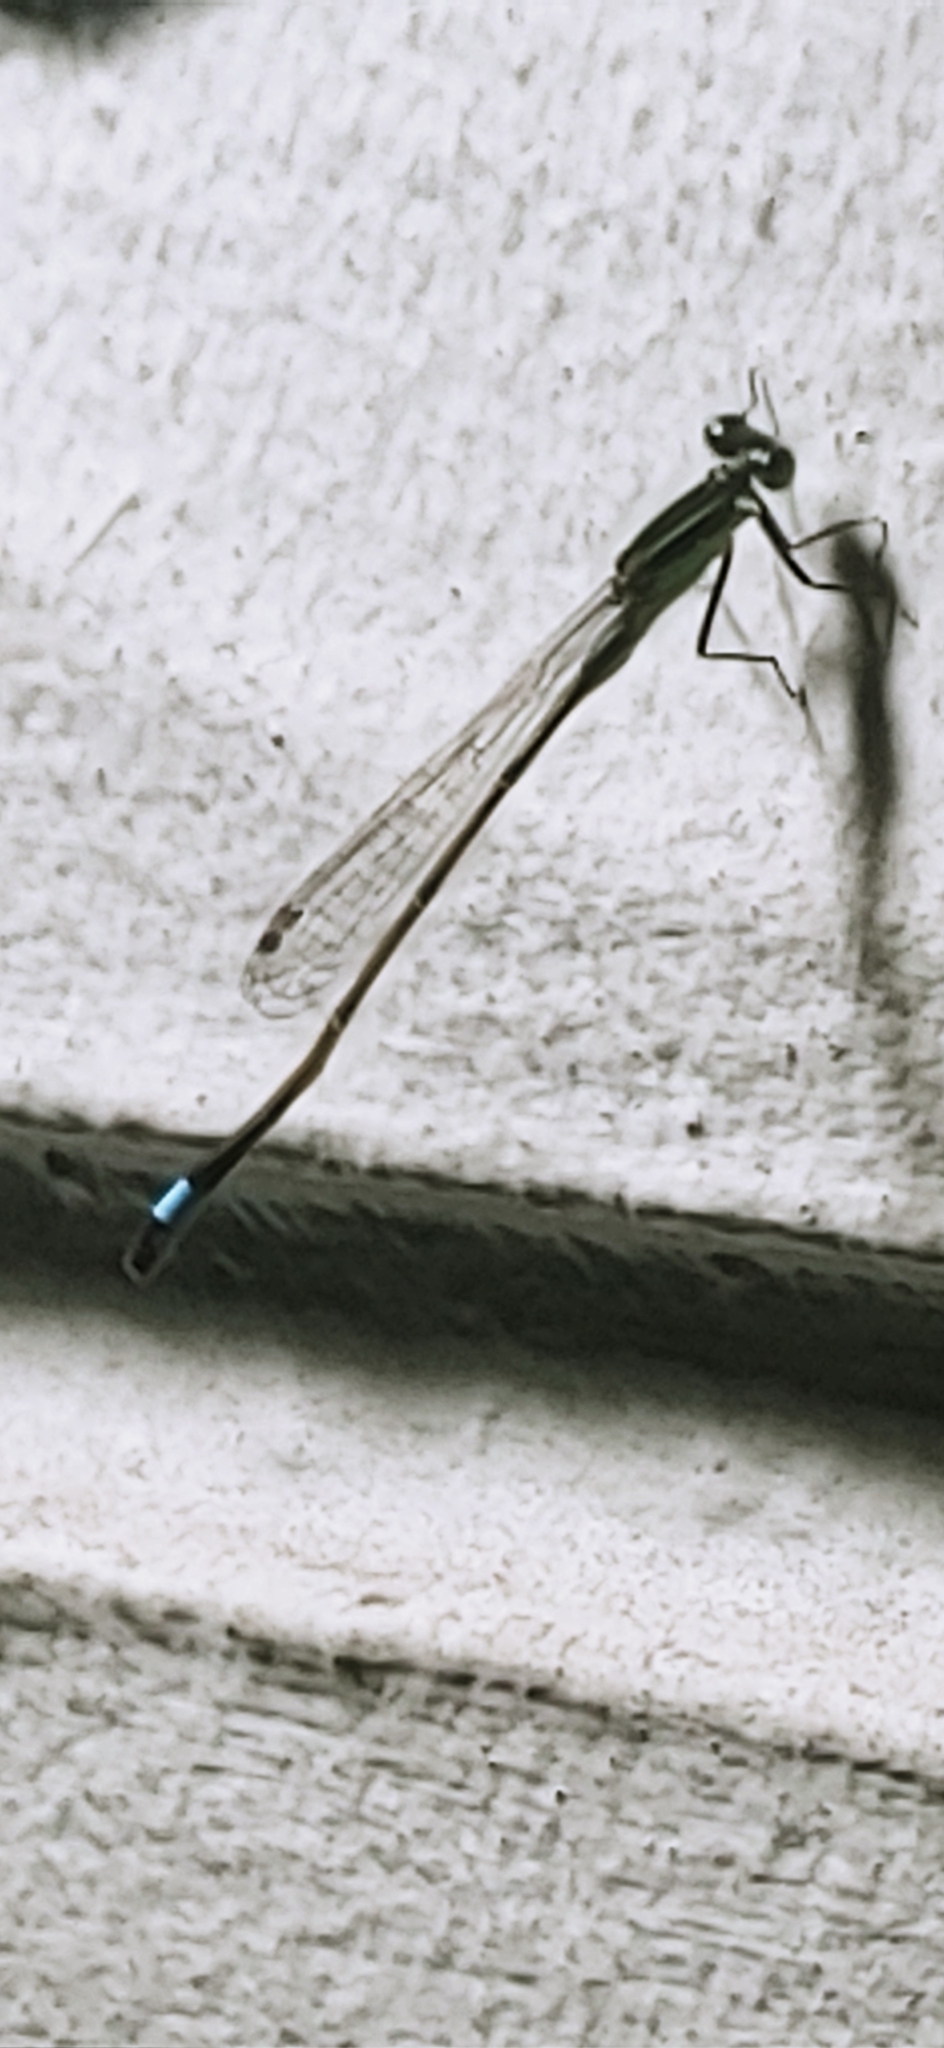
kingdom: Animalia
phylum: Arthropoda
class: Insecta
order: Odonata
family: Coenagrionidae
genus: Ischnura
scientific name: Ischnura ramburii
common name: Rambur's forktail
